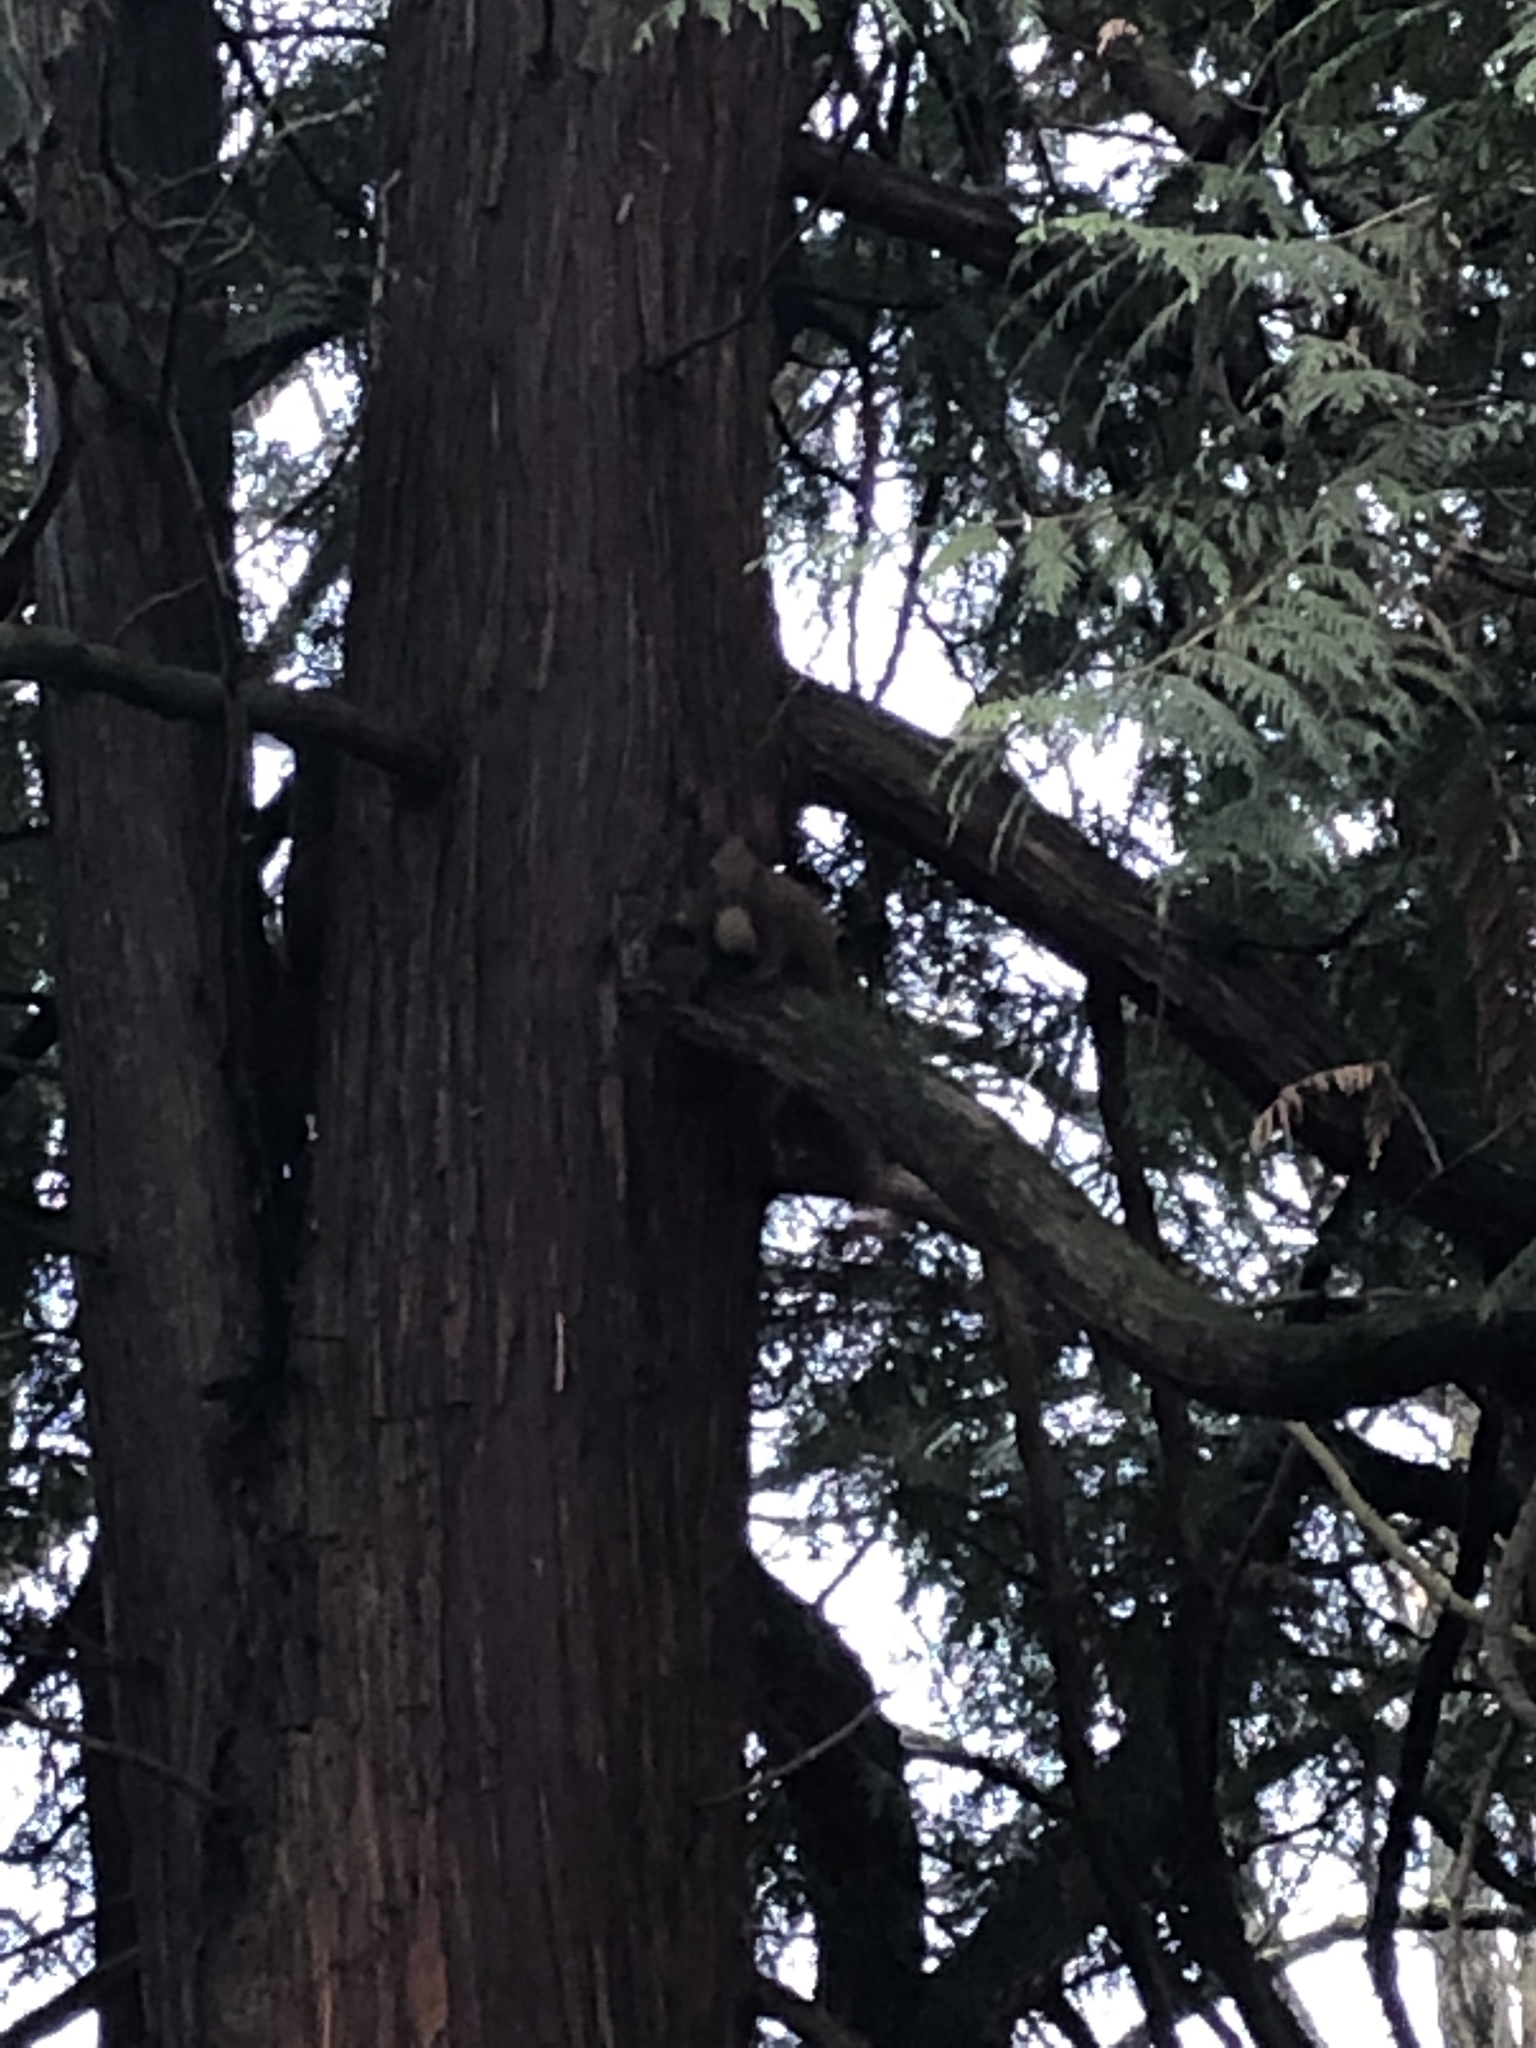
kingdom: Animalia
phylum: Chordata
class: Mammalia
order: Rodentia
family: Sciuridae
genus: Sciurus
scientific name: Sciurus vulgaris
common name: Eurasian red squirrel
